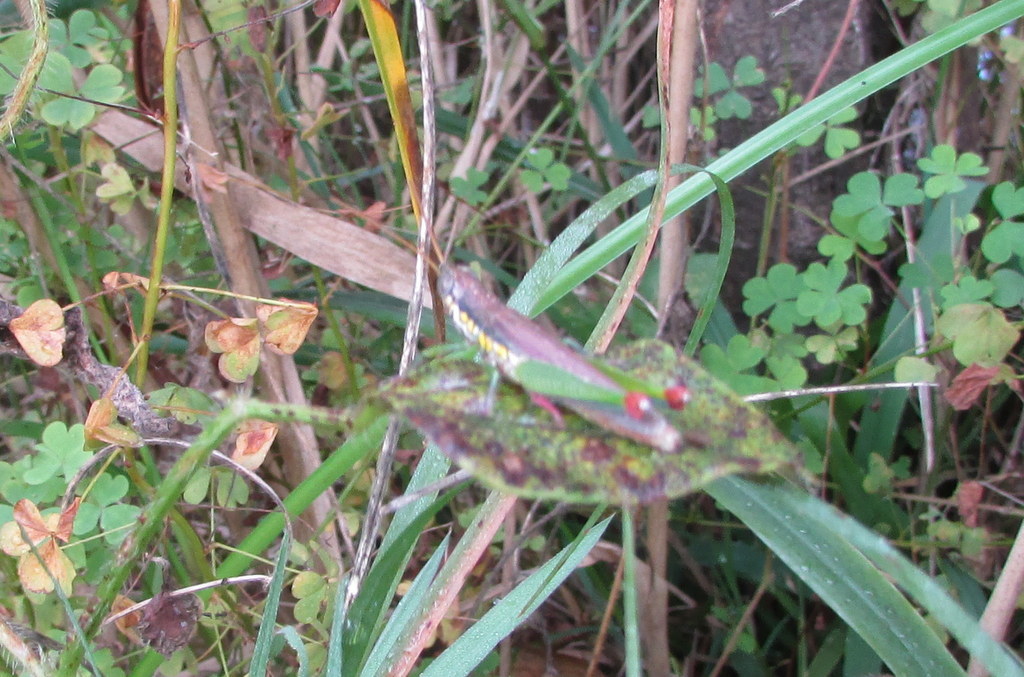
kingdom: Animalia
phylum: Arthropoda
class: Insecta
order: Orthoptera
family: Acrididae
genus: Stenopola
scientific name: Stenopola bohlsii
